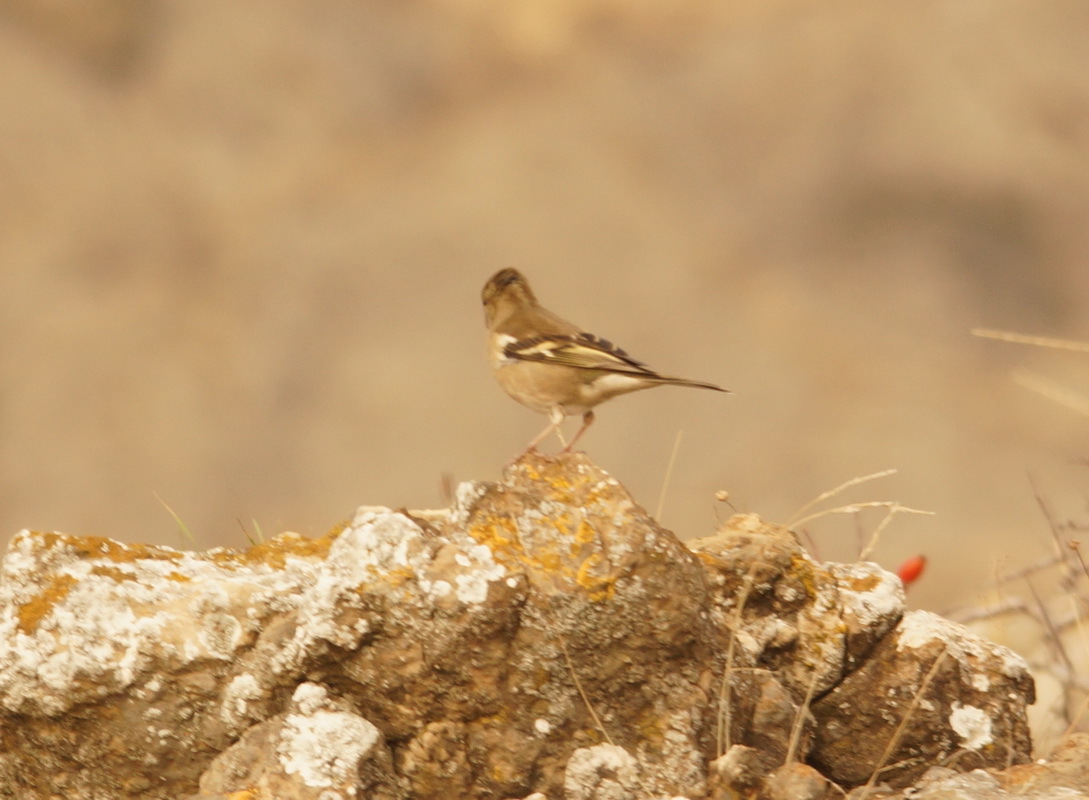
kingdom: Animalia
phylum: Chordata
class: Aves
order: Passeriformes
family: Fringillidae
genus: Fringilla
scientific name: Fringilla coelebs
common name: Common chaffinch
